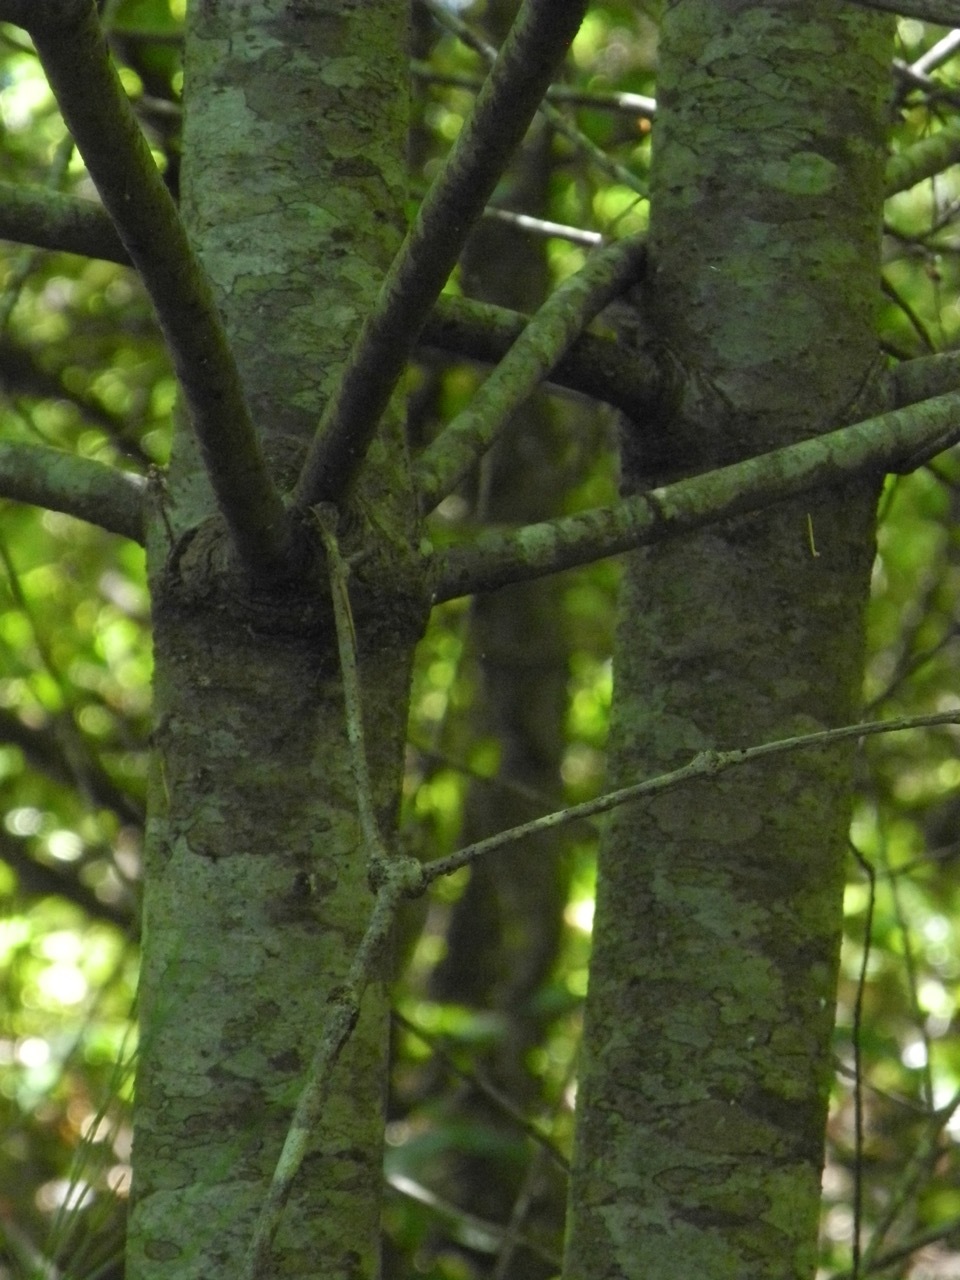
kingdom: Plantae
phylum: Tracheophyta
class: Pinopsida
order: Pinales
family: Pinaceae
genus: Pinus
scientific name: Pinus strobus
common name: Weymouth pine
